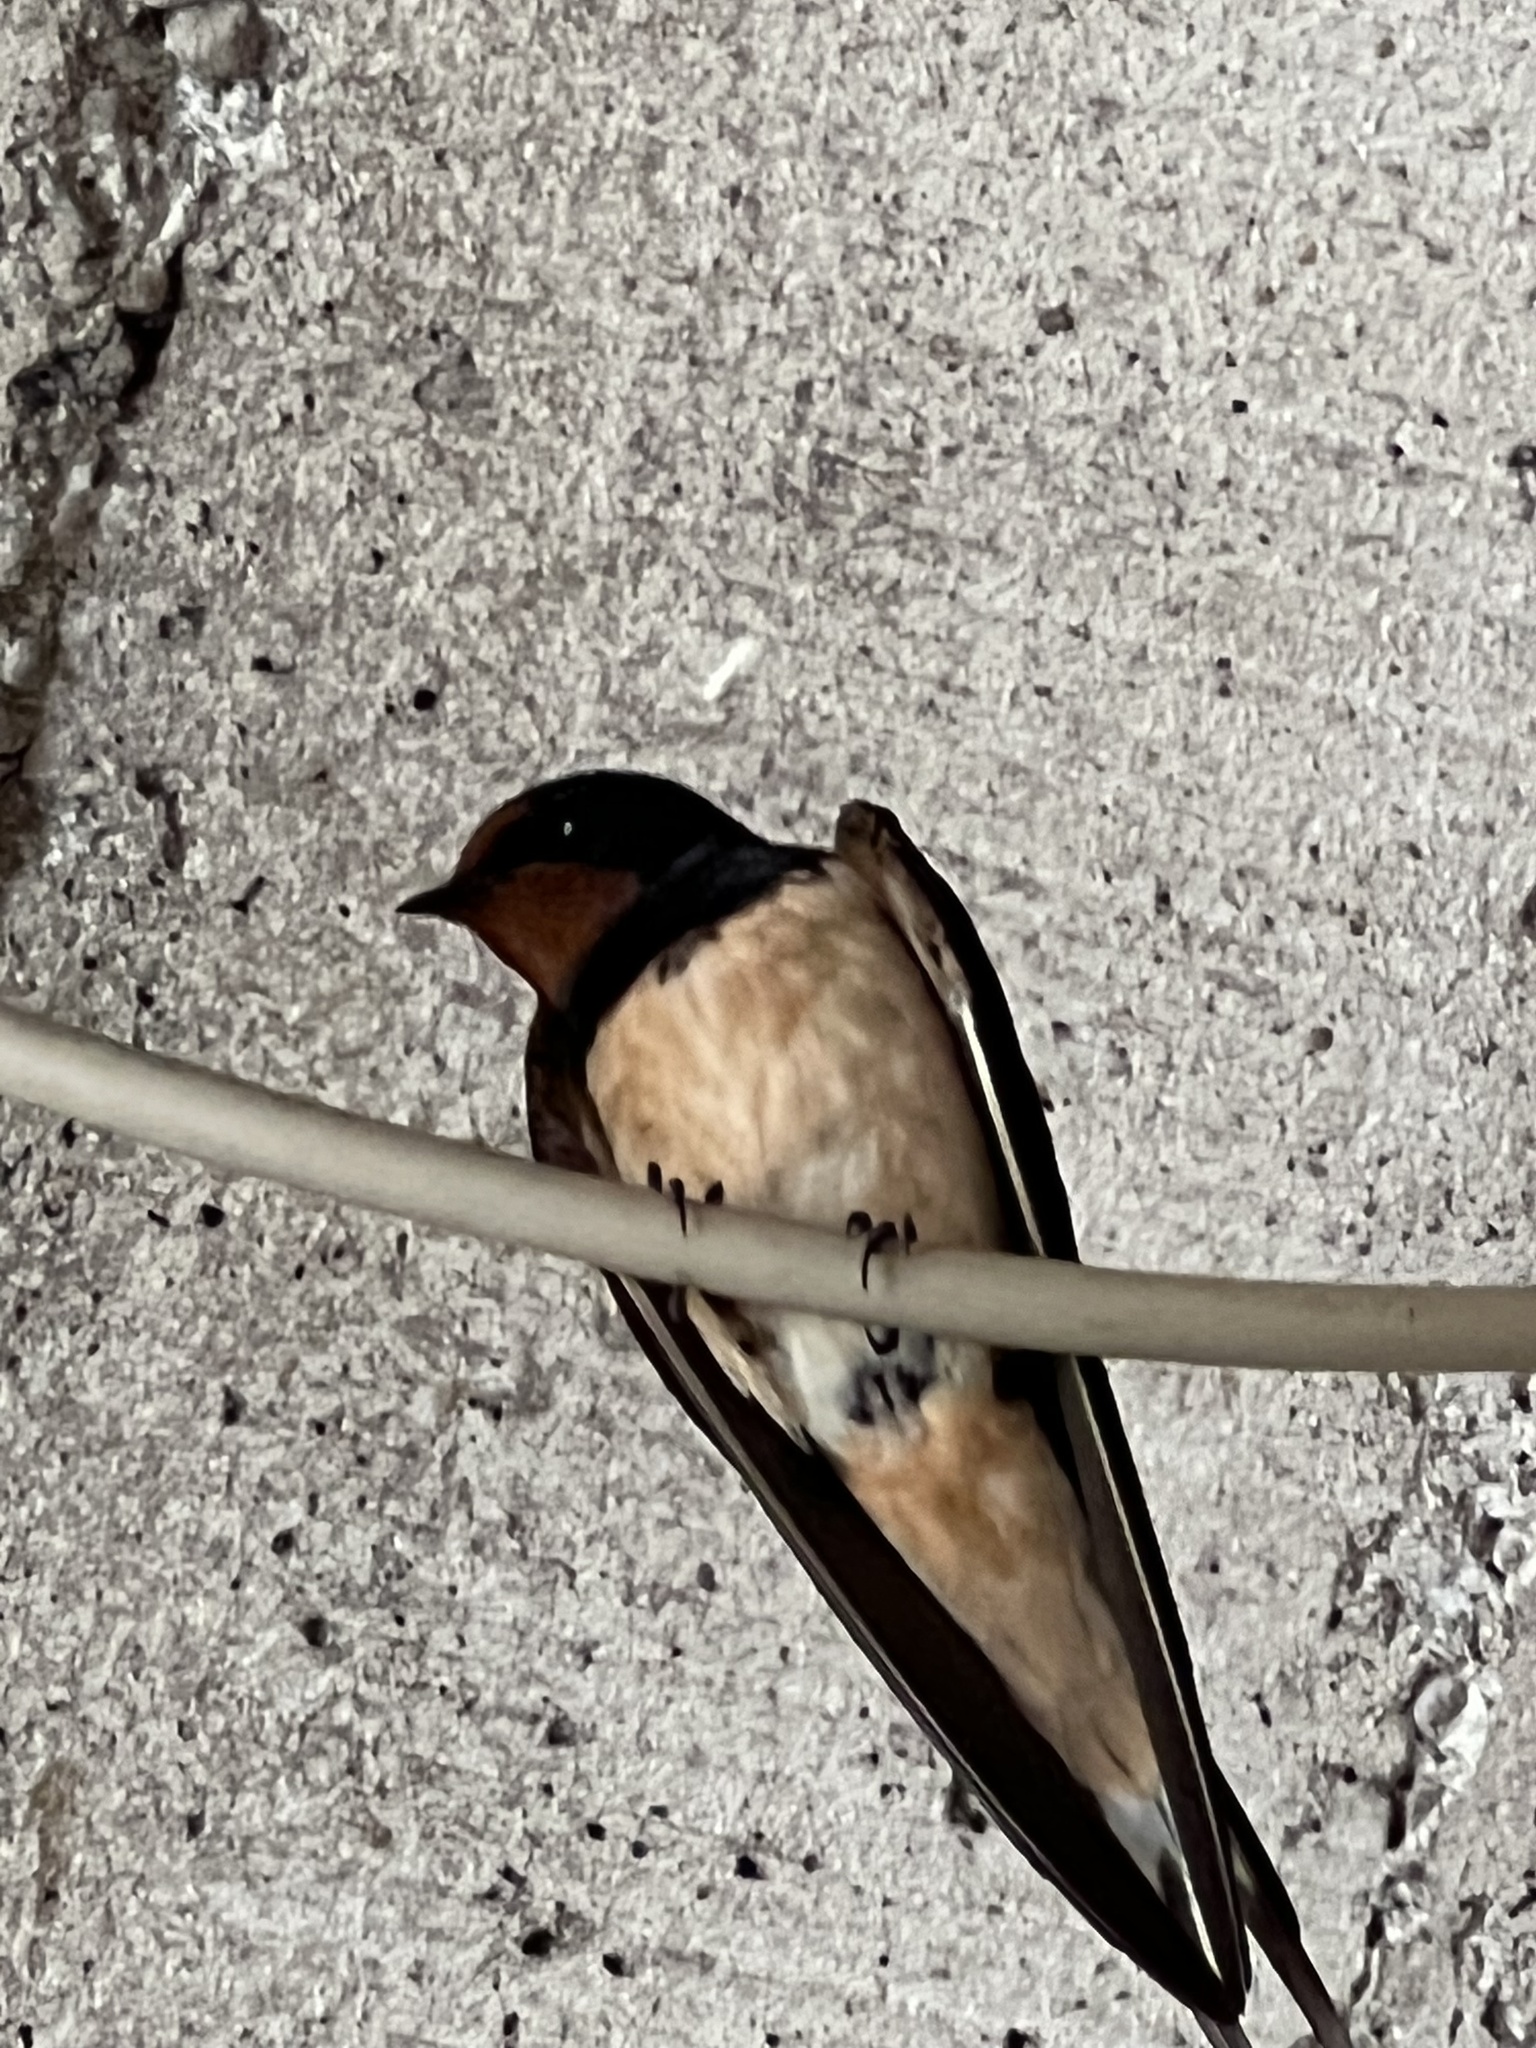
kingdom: Animalia
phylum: Chordata
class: Aves
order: Passeriformes
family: Hirundinidae
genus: Hirundo
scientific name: Hirundo rustica
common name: Barn swallow
